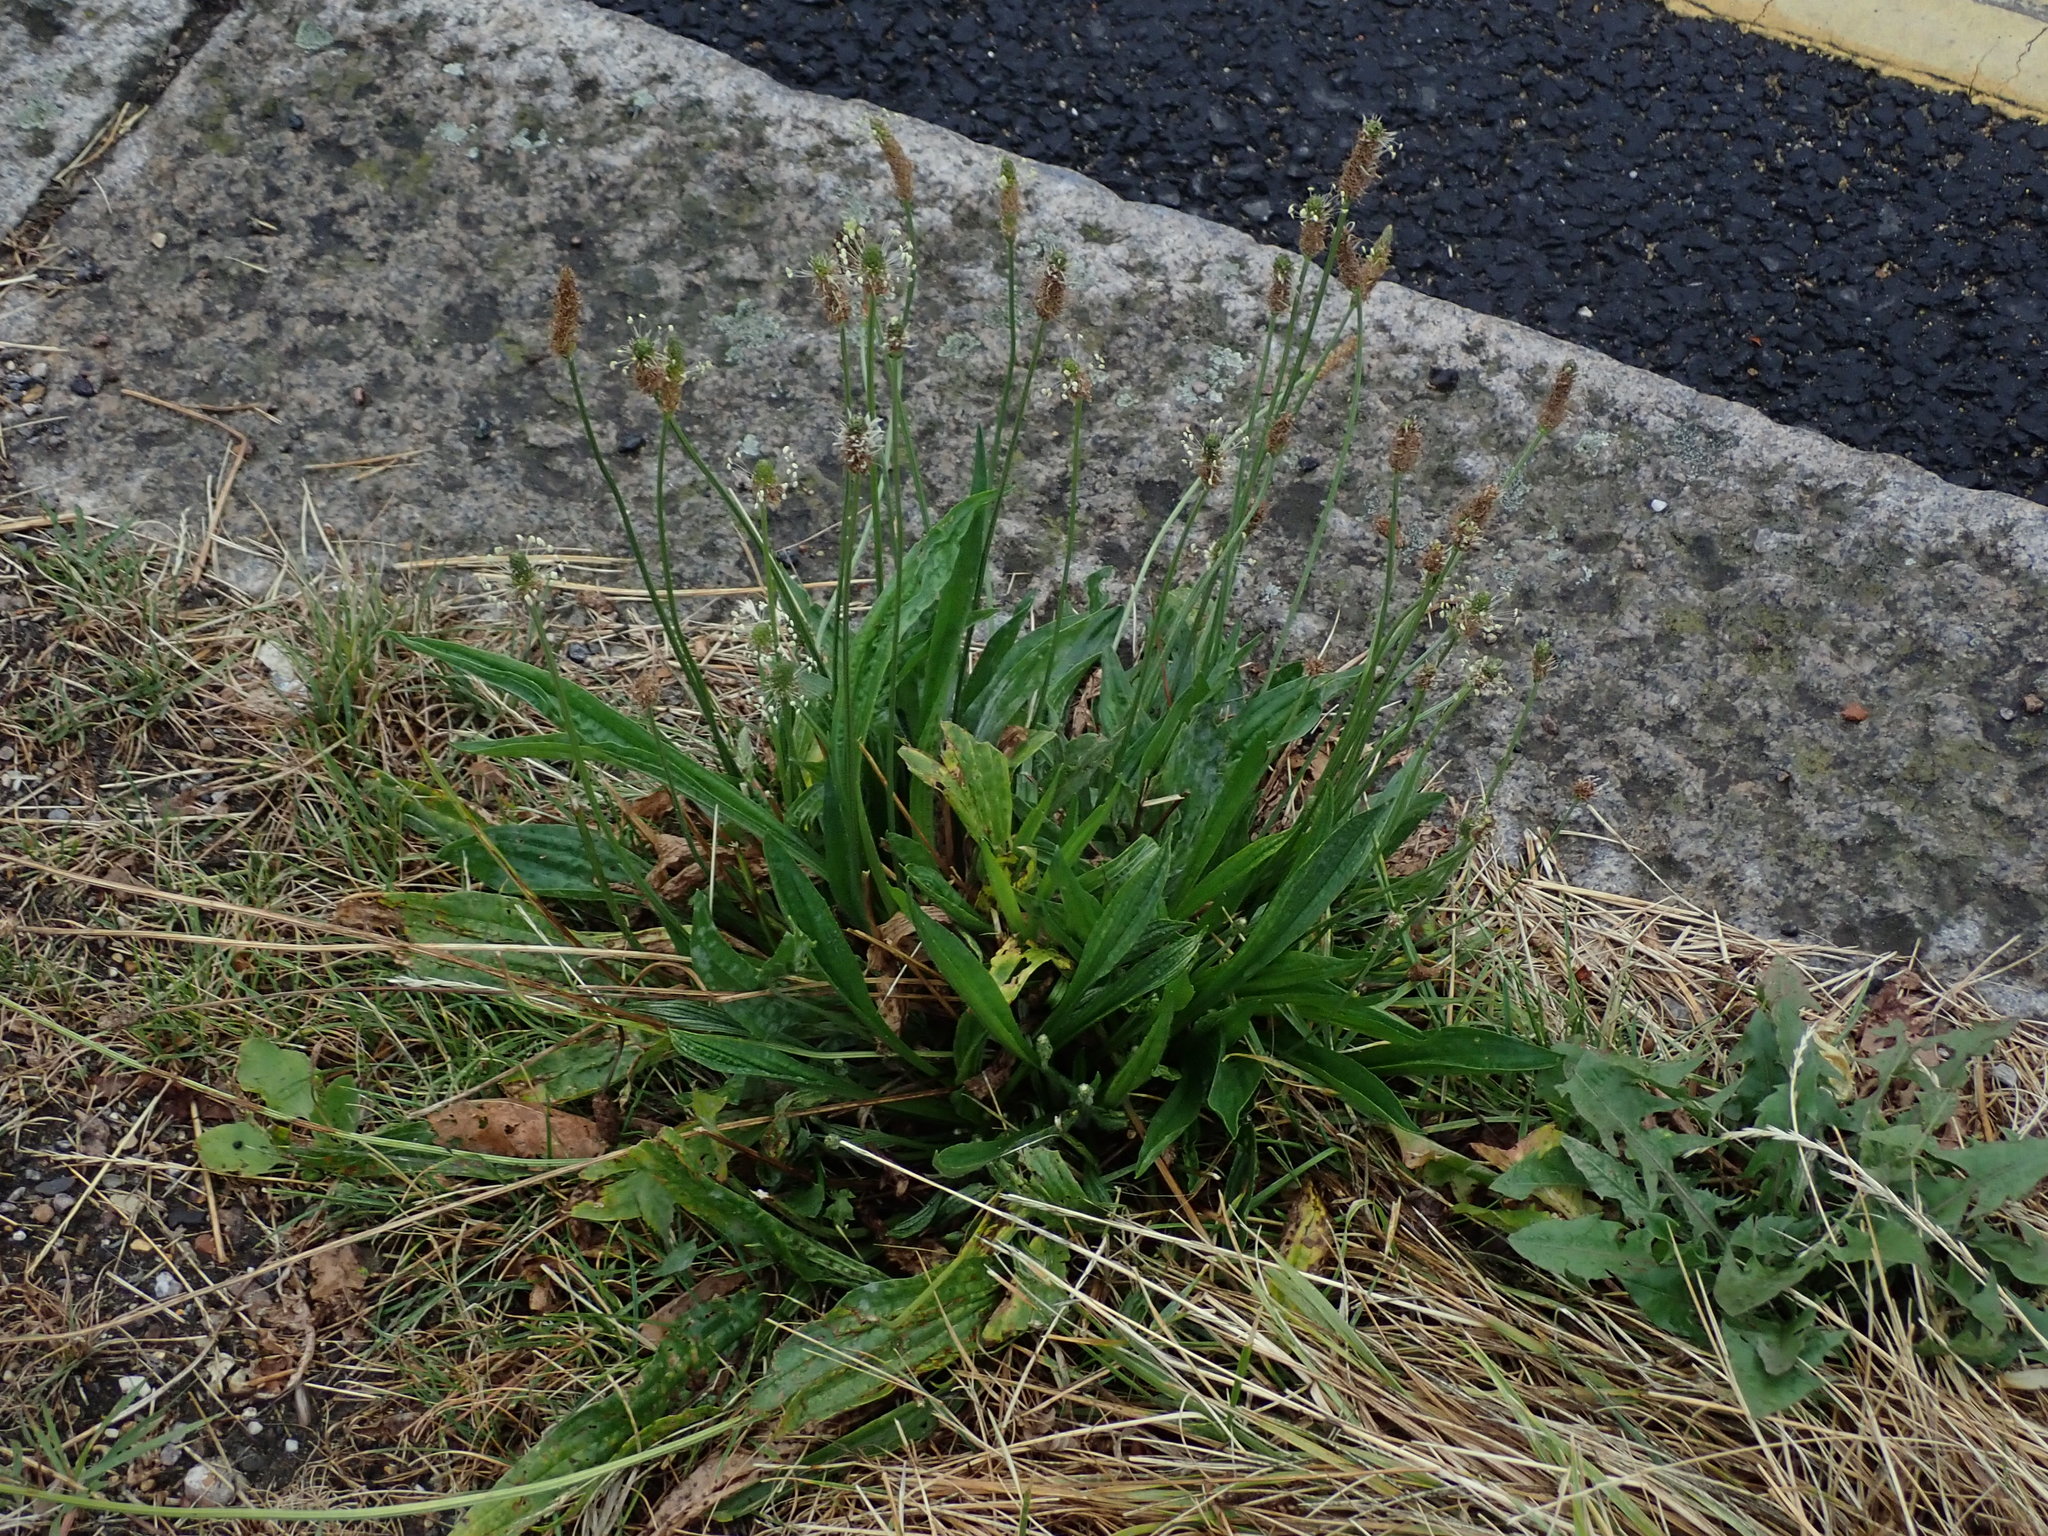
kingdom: Plantae
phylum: Tracheophyta
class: Magnoliopsida
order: Lamiales
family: Plantaginaceae
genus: Plantago
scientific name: Plantago lanceolata
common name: Ribwort plantain
